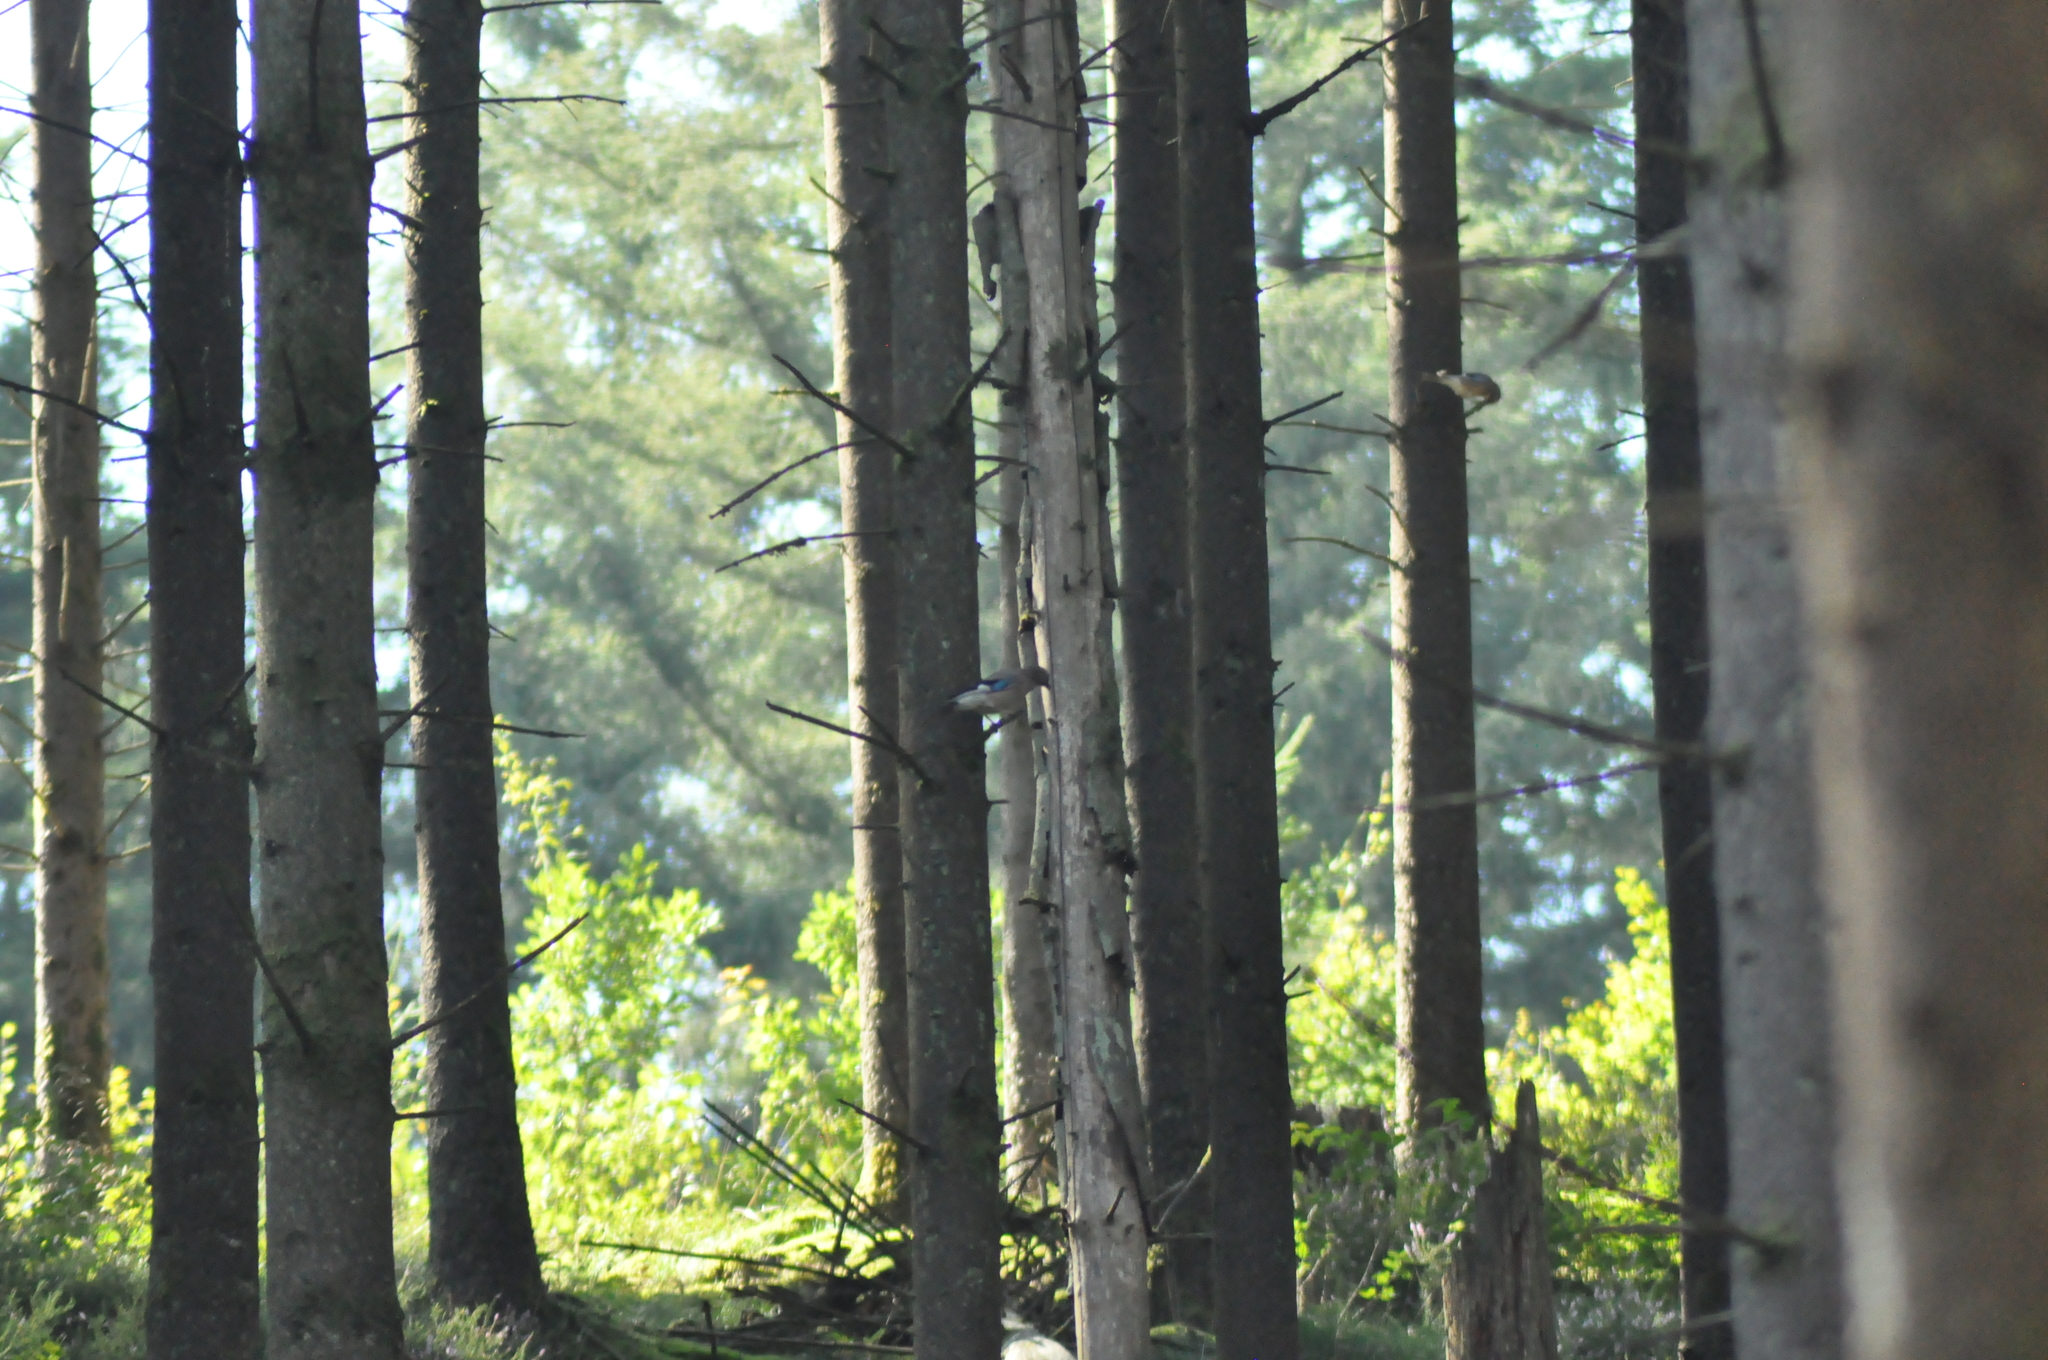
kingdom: Animalia
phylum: Chordata
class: Aves
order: Passeriformes
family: Corvidae
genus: Garrulus
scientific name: Garrulus glandarius
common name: Eurasian jay
